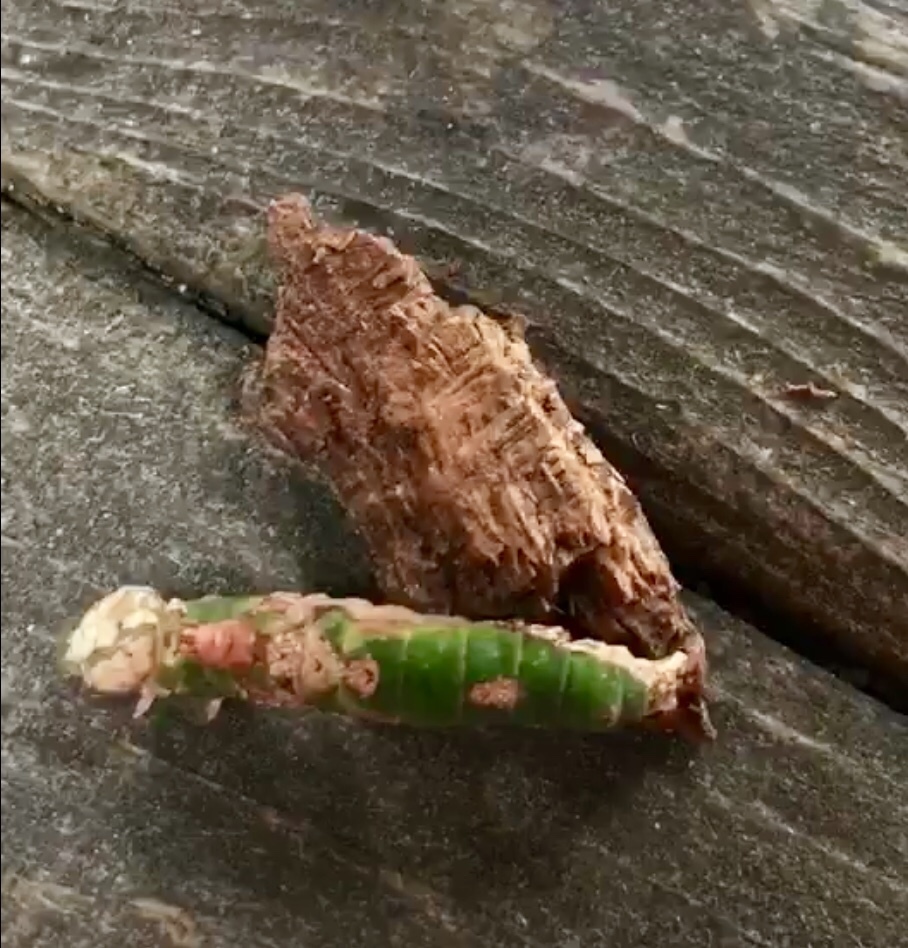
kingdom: Animalia
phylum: Arthropoda
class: Insecta
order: Lepidoptera
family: Notodontidae
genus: Oligocentria
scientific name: Oligocentria Ianassa lignicolor
